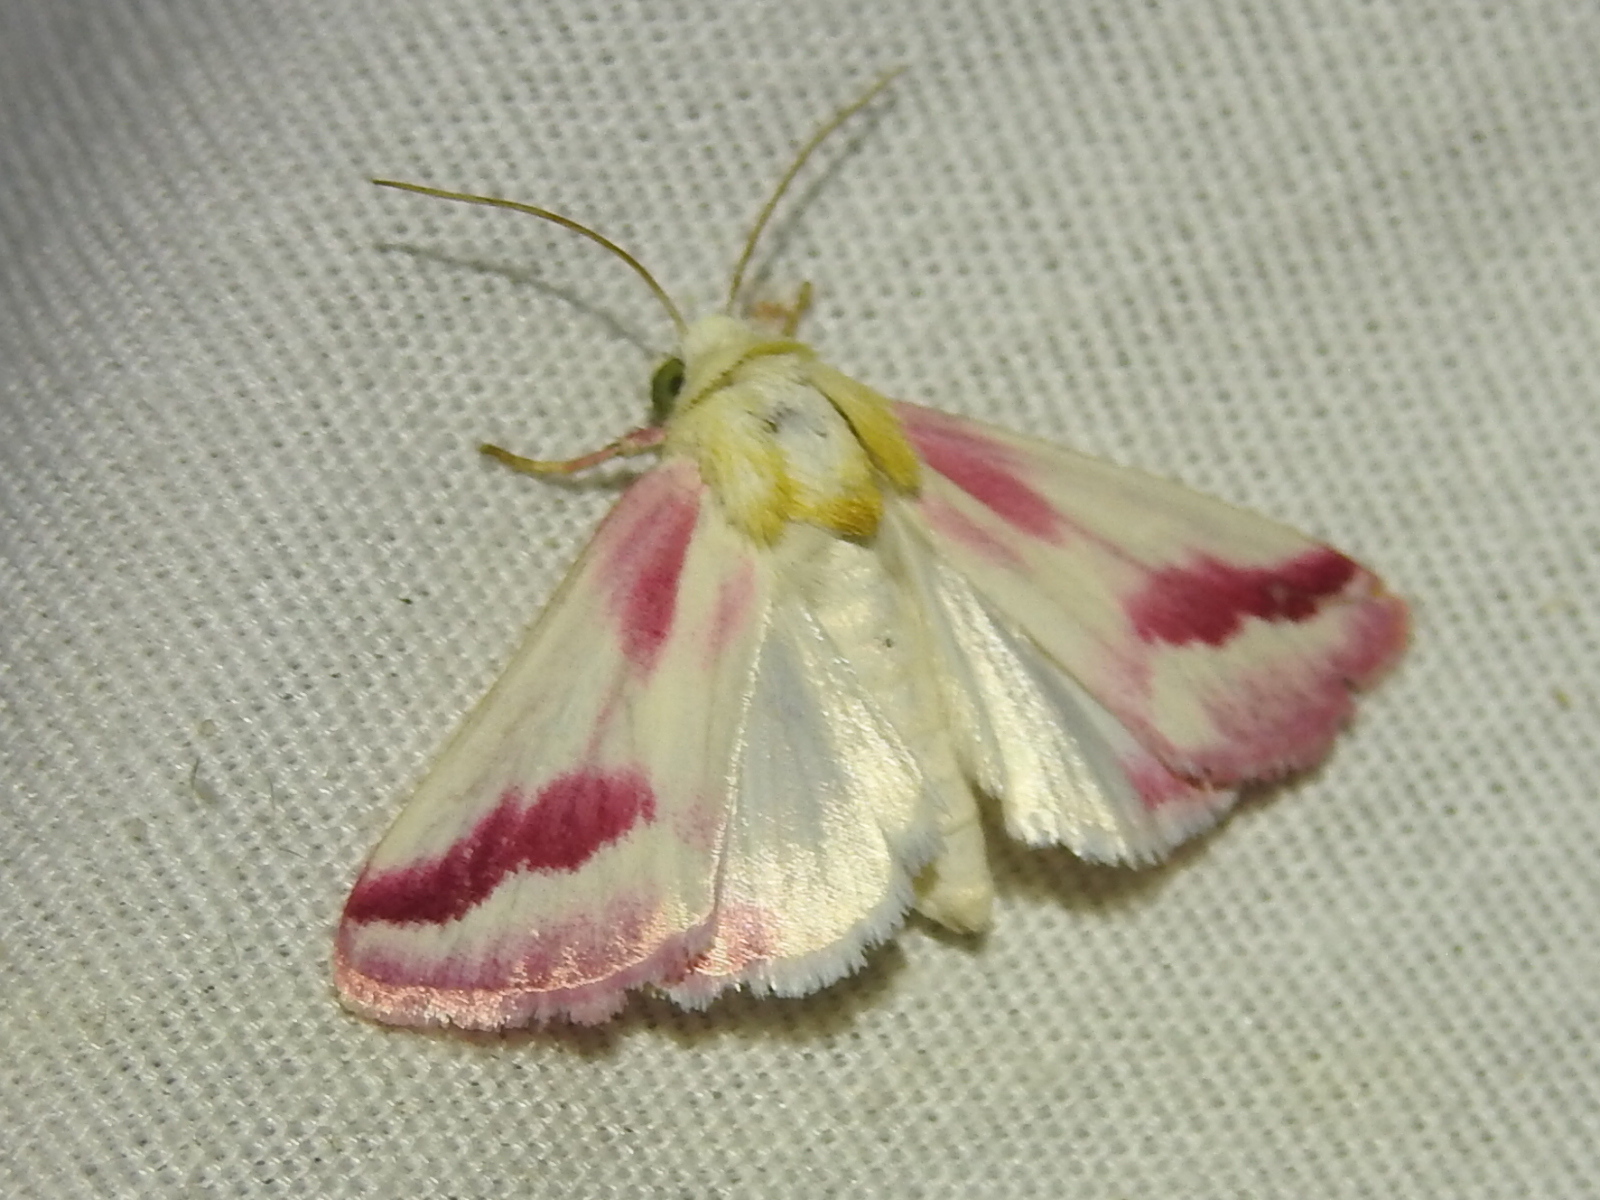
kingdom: Animalia
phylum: Arthropoda
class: Insecta
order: Lepidoptera
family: Noctuidae
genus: Schinia
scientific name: Schinia gaurae
